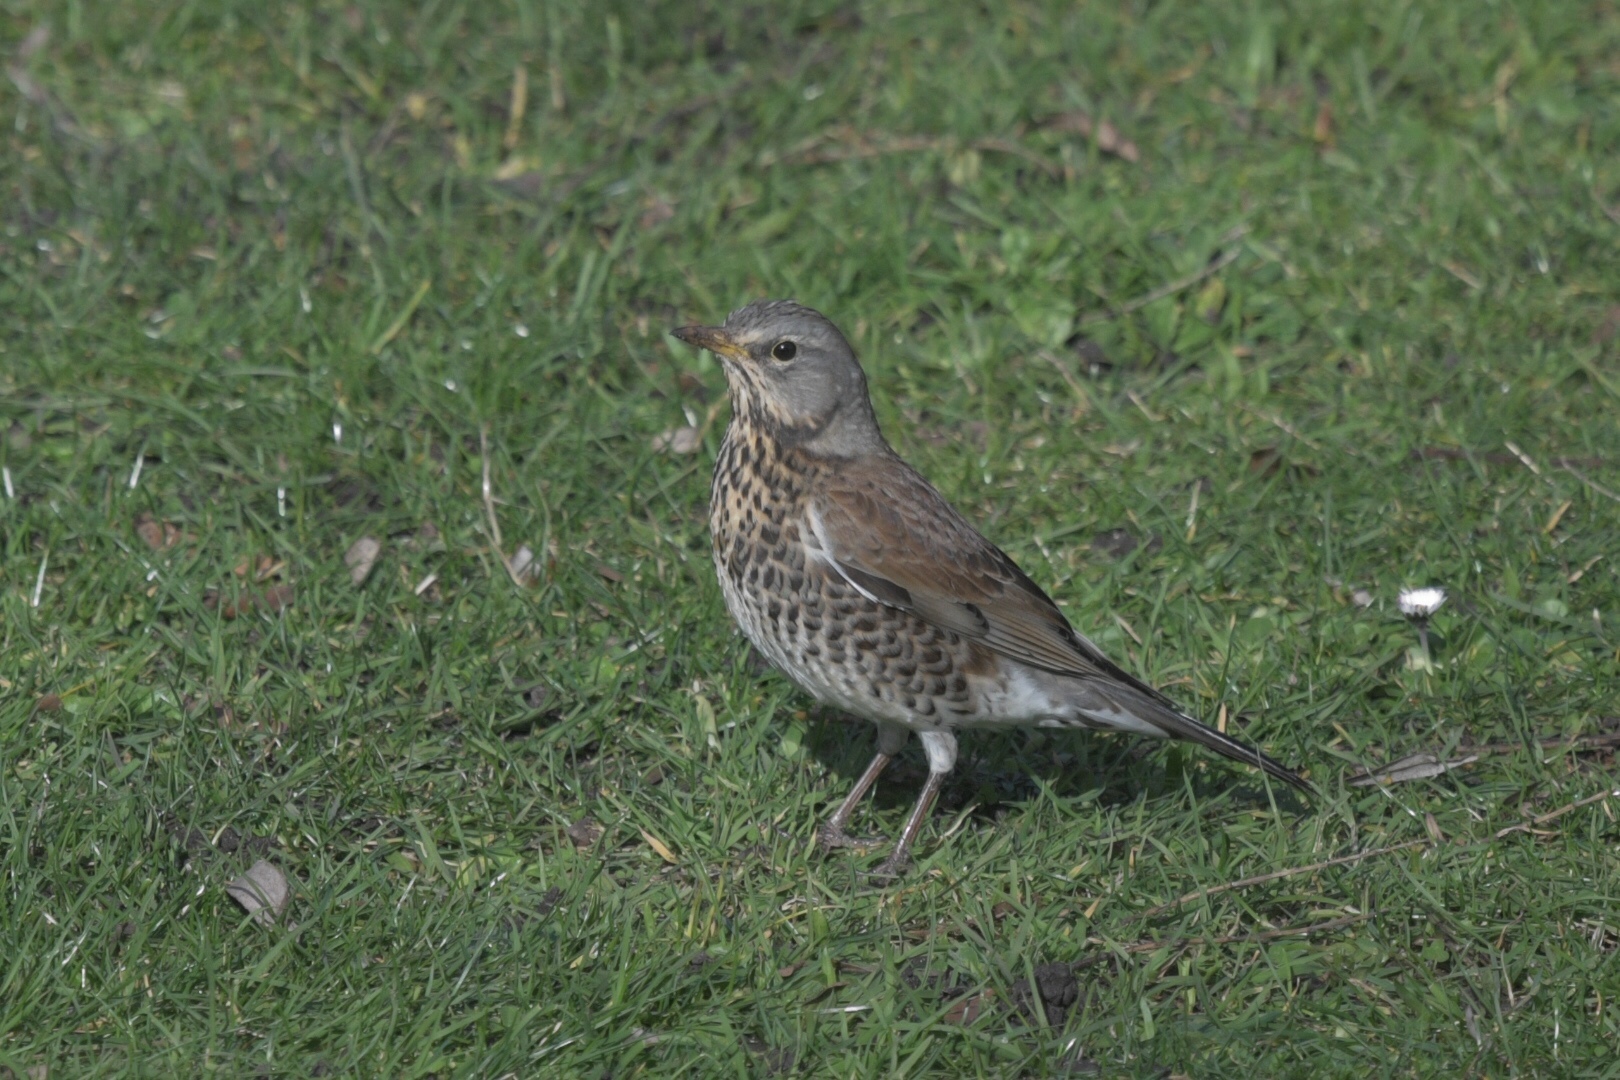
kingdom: Animalia
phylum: Chordata
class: Aves
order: Passeriformes
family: Turdidae
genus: Turdus
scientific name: Turdus pilaris
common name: Fieldfare
